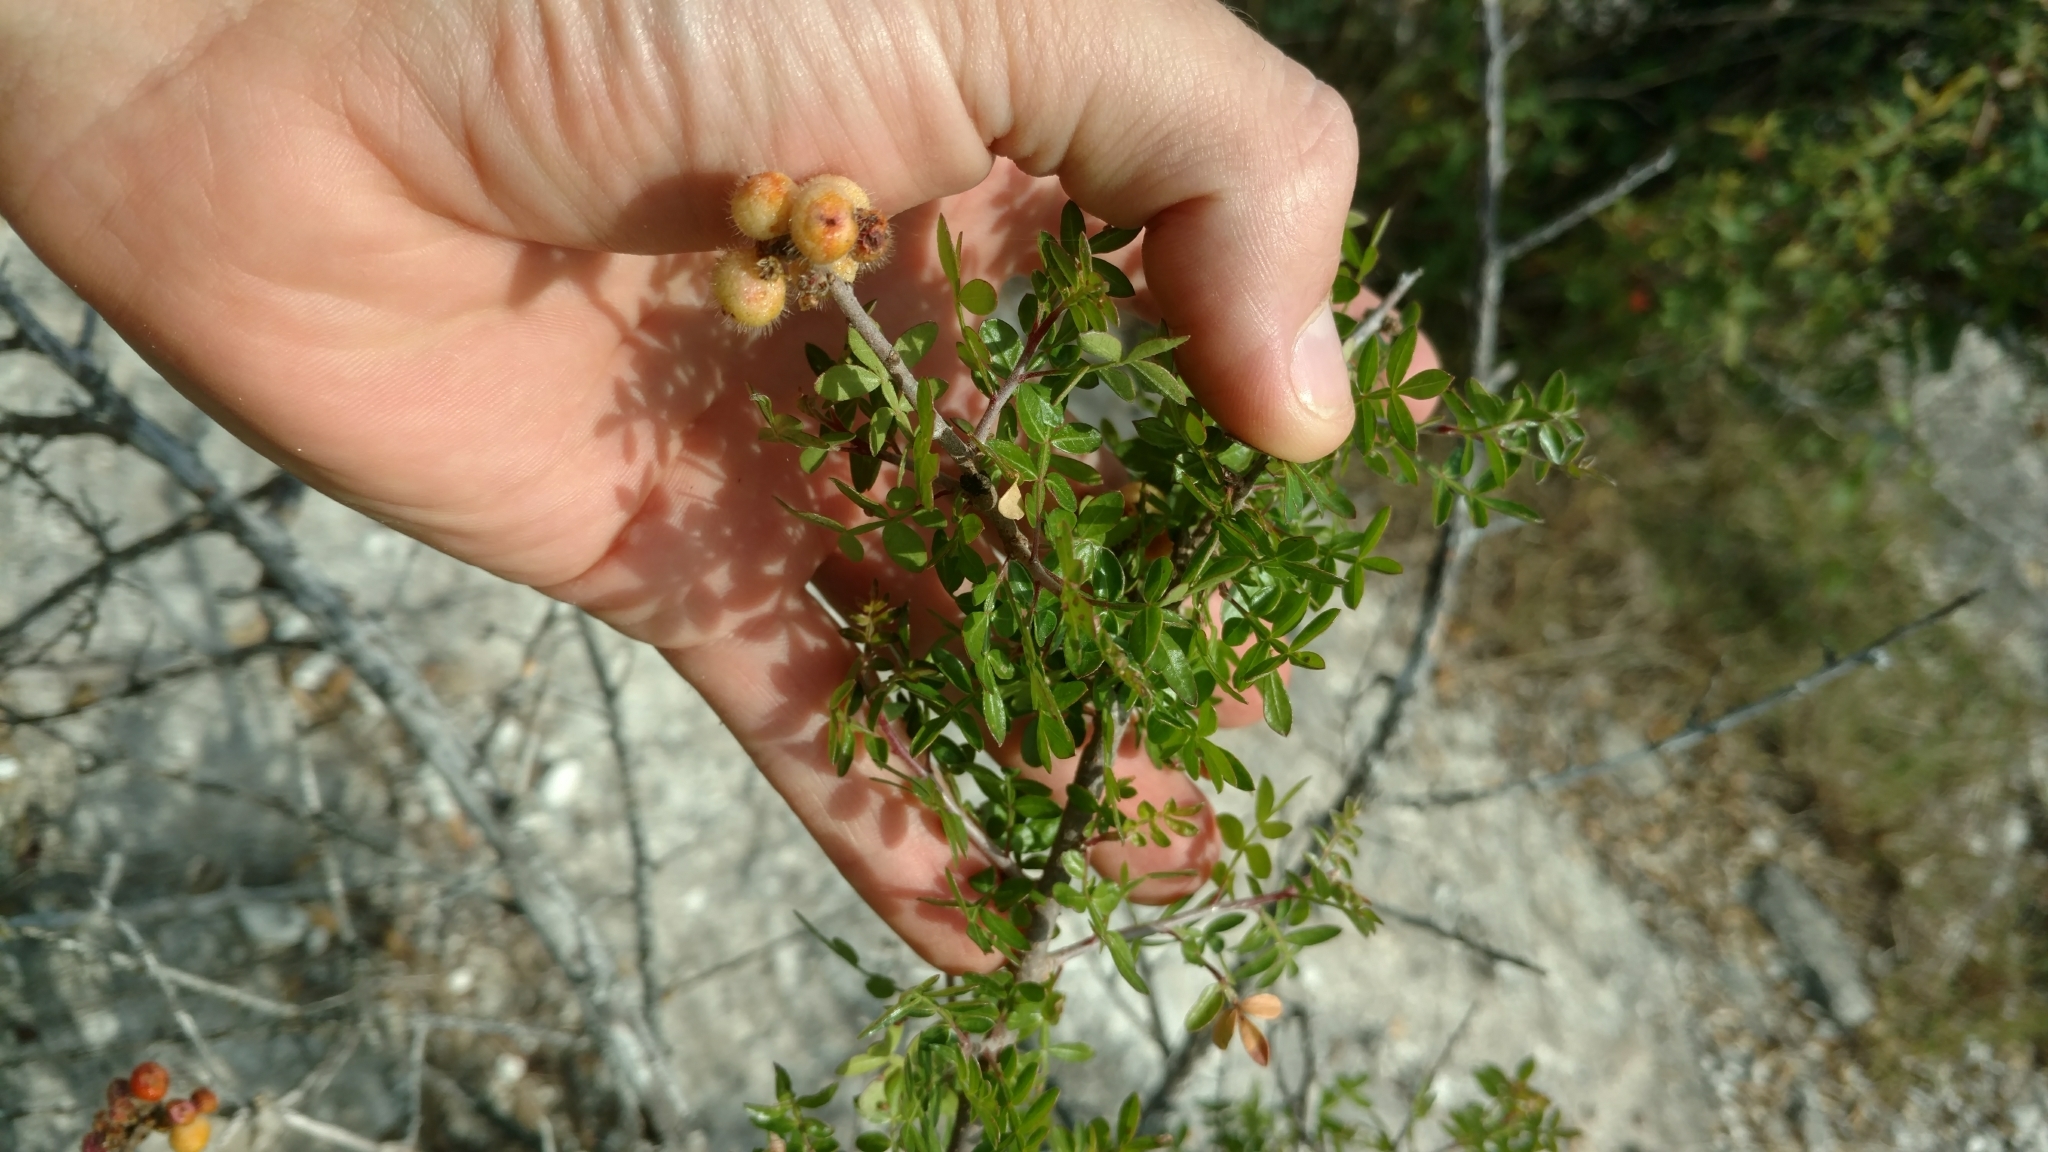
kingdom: Plantae
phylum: Tracheophyta
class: Magnoliopsida
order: Sapindales
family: Anacardiaceae
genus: Rhus
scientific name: Rhus microphylla
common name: Desert sumac
